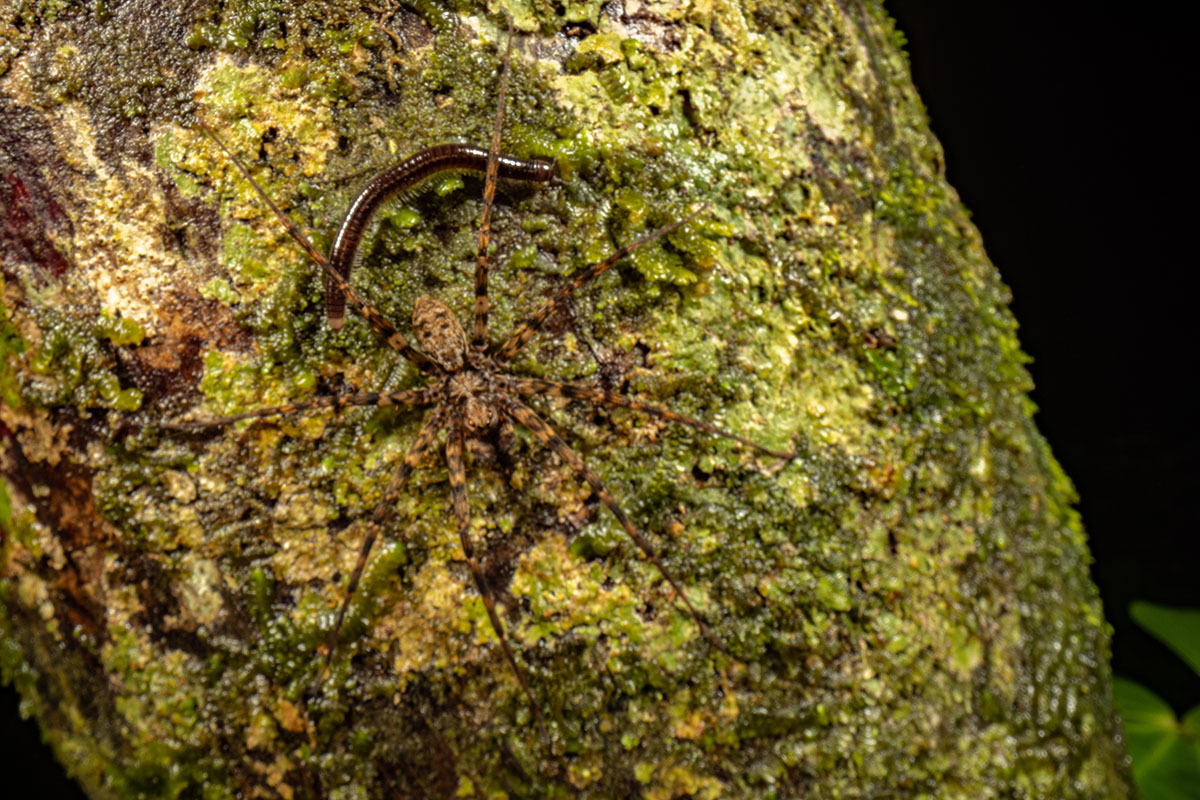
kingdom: Animalia
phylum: Arthropoda
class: Arachnida
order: Araneae
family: Cycloctenidae
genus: Cycloctenus
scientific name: Cycloctenus
